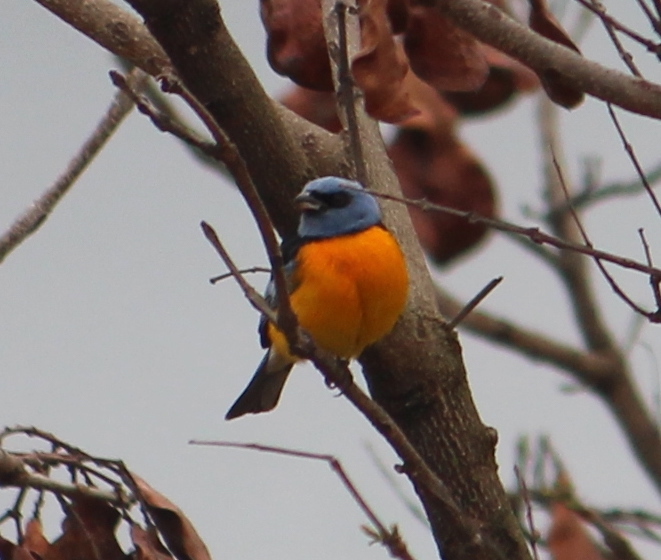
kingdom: Animalia
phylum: Chordata
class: Aves
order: Passeriformes
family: Thraupidae
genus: Rauenia
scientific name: Rauenia bonariensis
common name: Blue-and-yellow tanager
